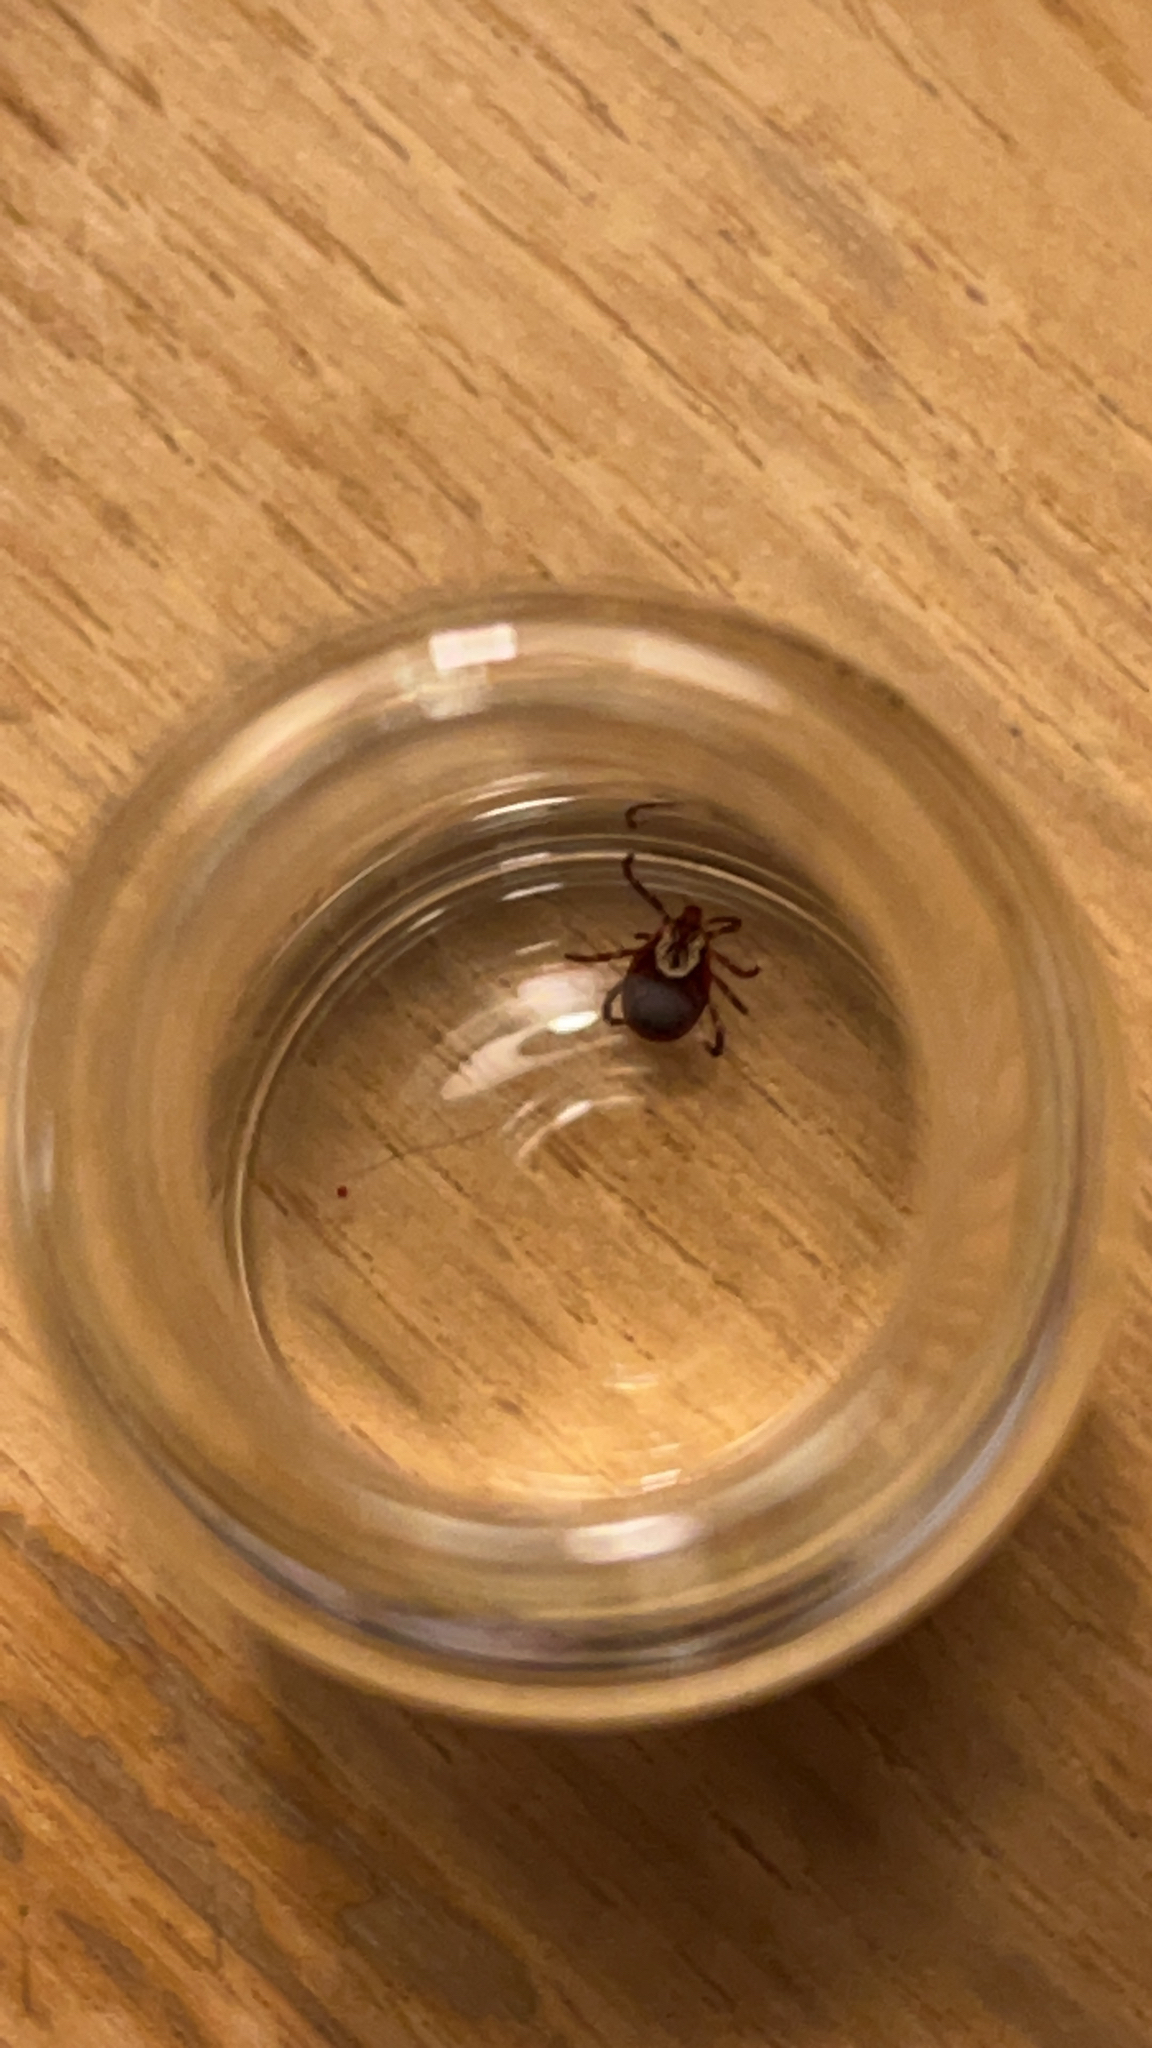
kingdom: Animalia
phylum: Arthropoda
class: Arachnida
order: Ixodida
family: Ixodidae
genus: Dermacentor
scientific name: Dermacentor variabilis
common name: American dog tick
